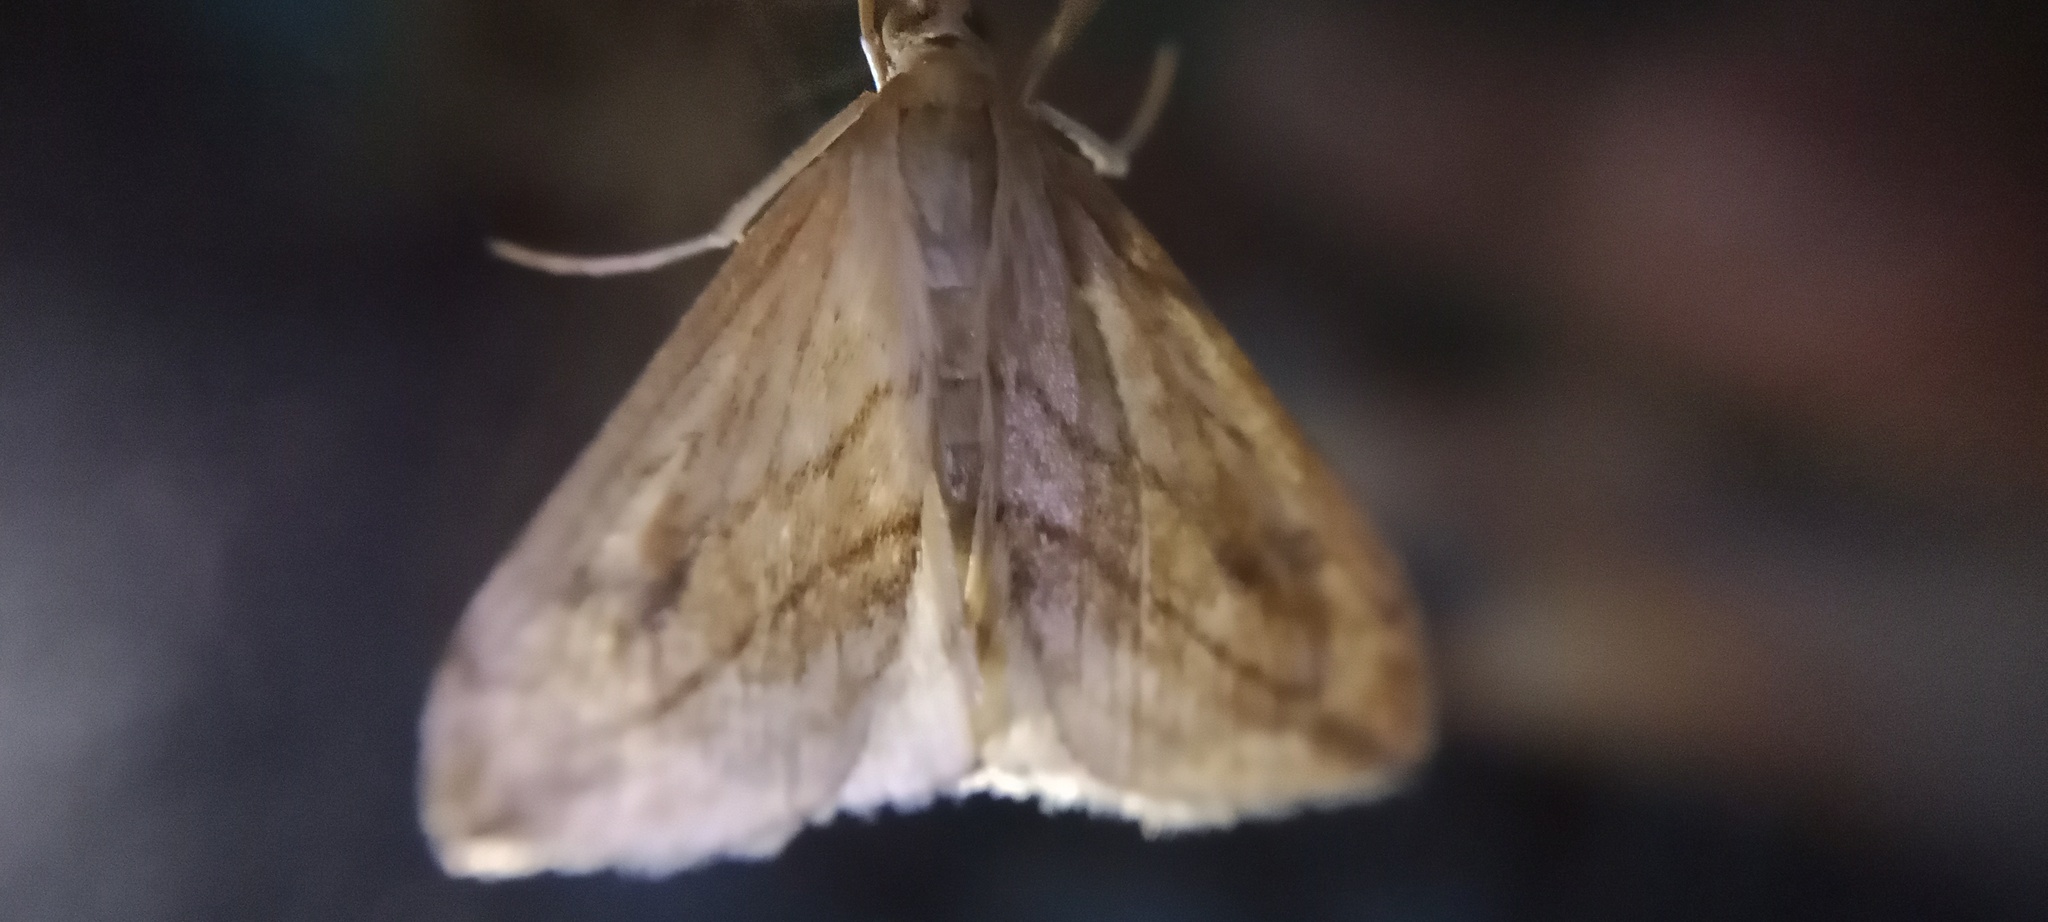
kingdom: Animalia
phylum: Arthropoda
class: Insecta
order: Lepidoptera
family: Crambidae
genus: Evergestis
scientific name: Evergestis forficalis
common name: Garden pebble
